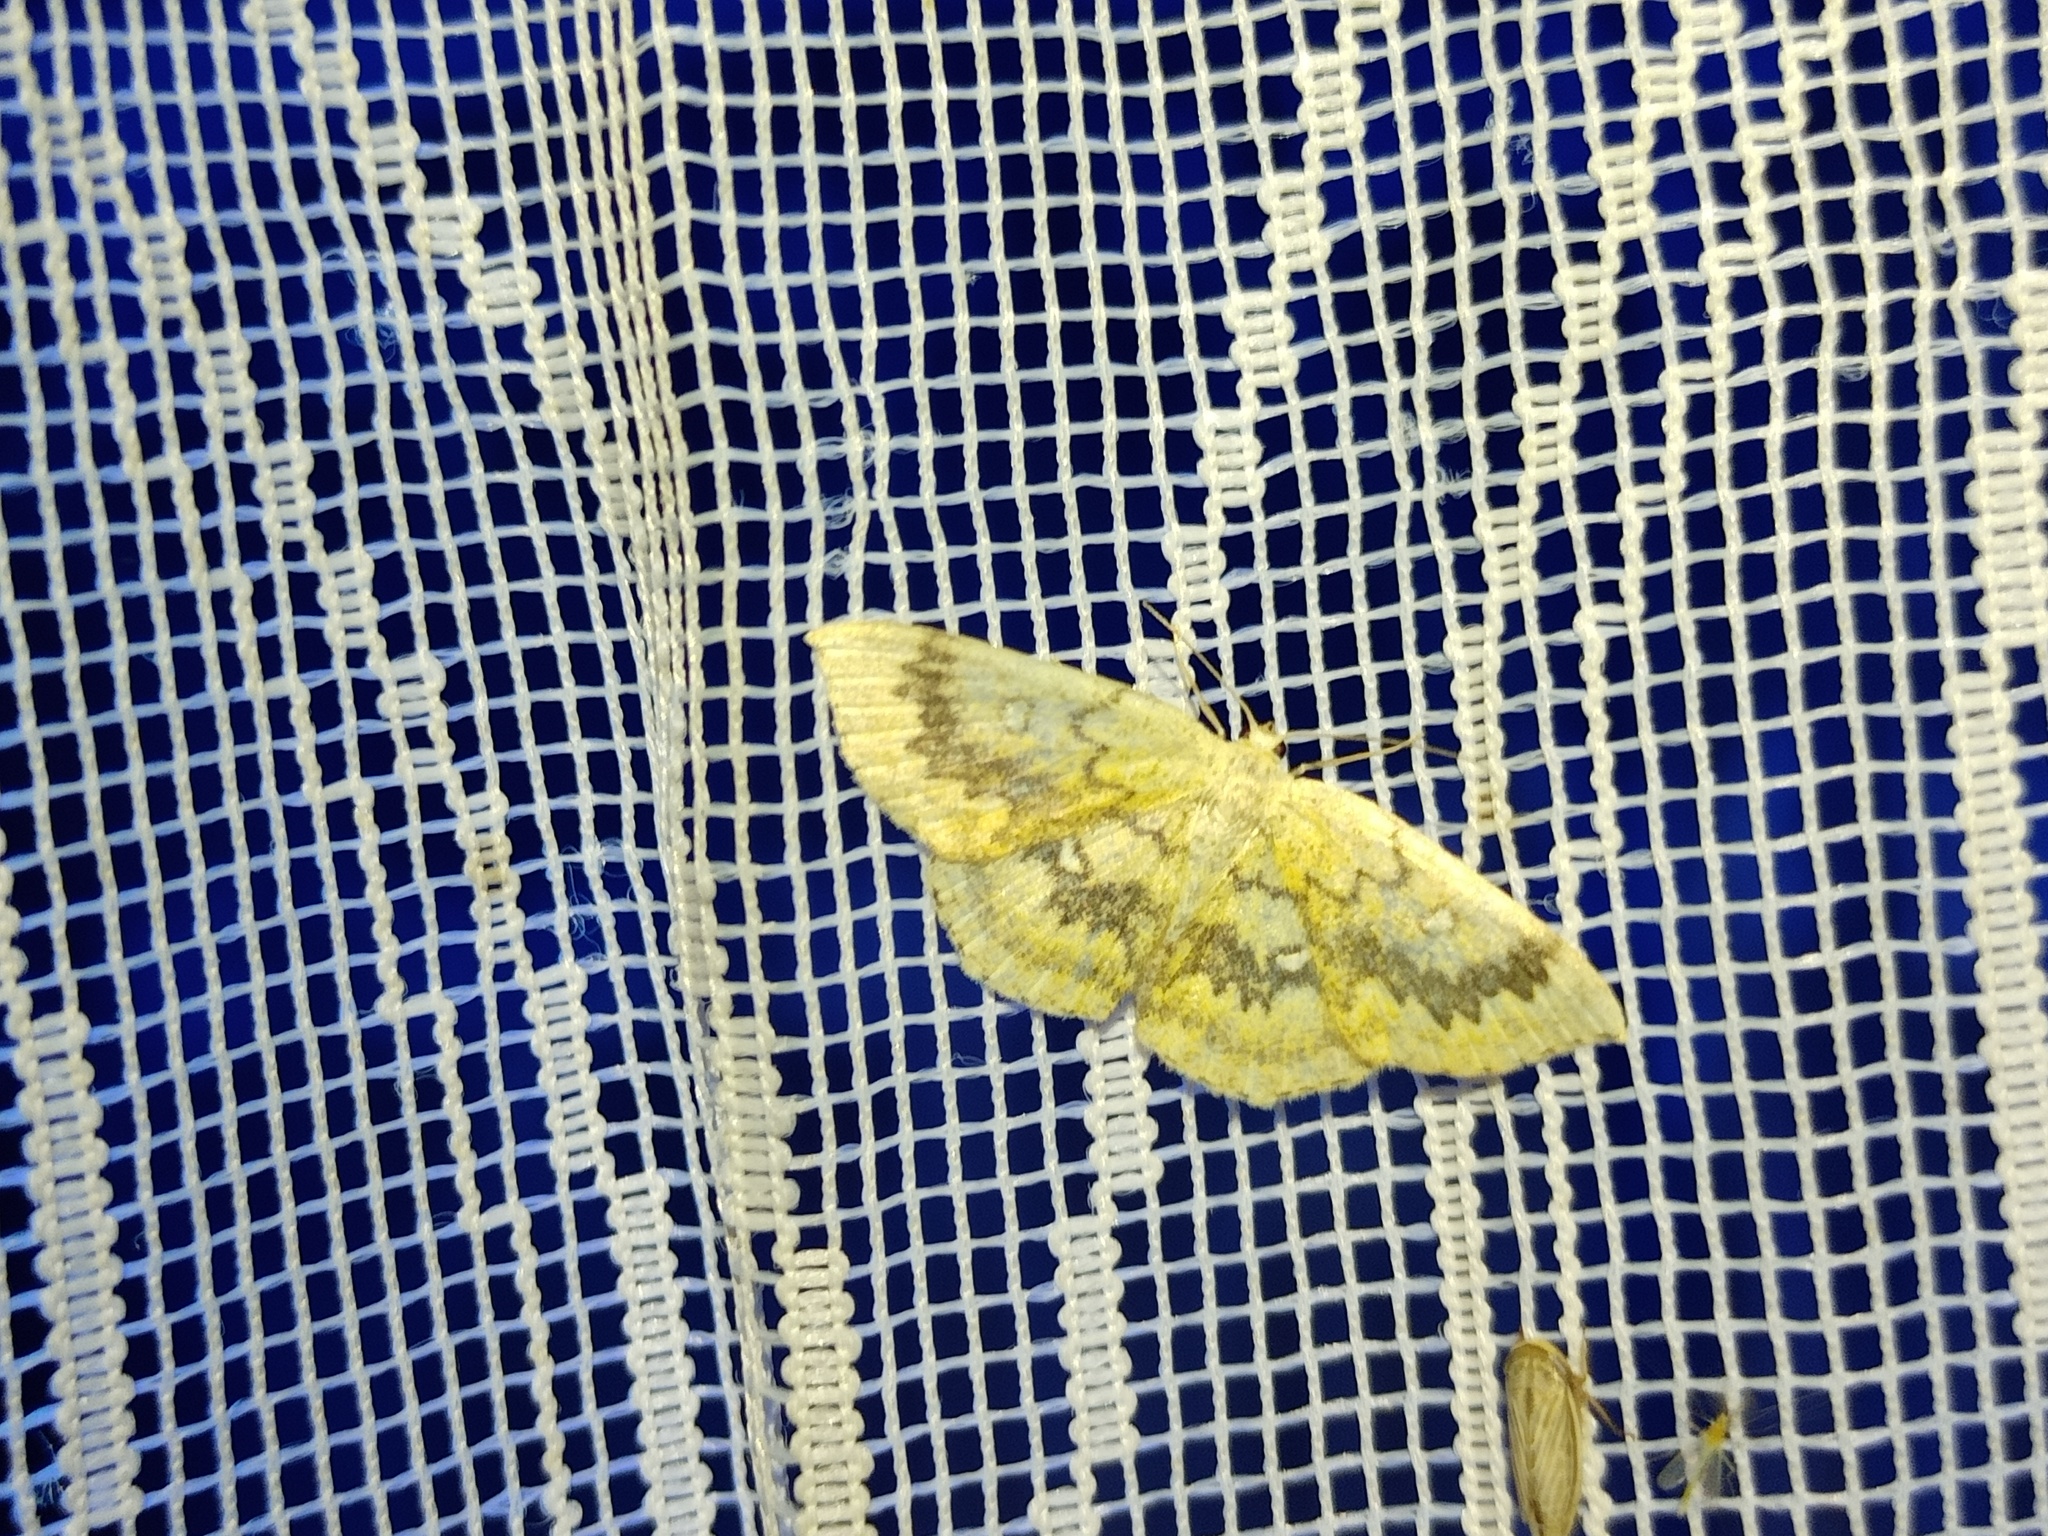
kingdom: Animalia
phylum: Arthropoda
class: Insecta
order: Lepidoptera
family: Geometridae
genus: Cyclophora
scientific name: Cyclophora annularia
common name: Mocha
